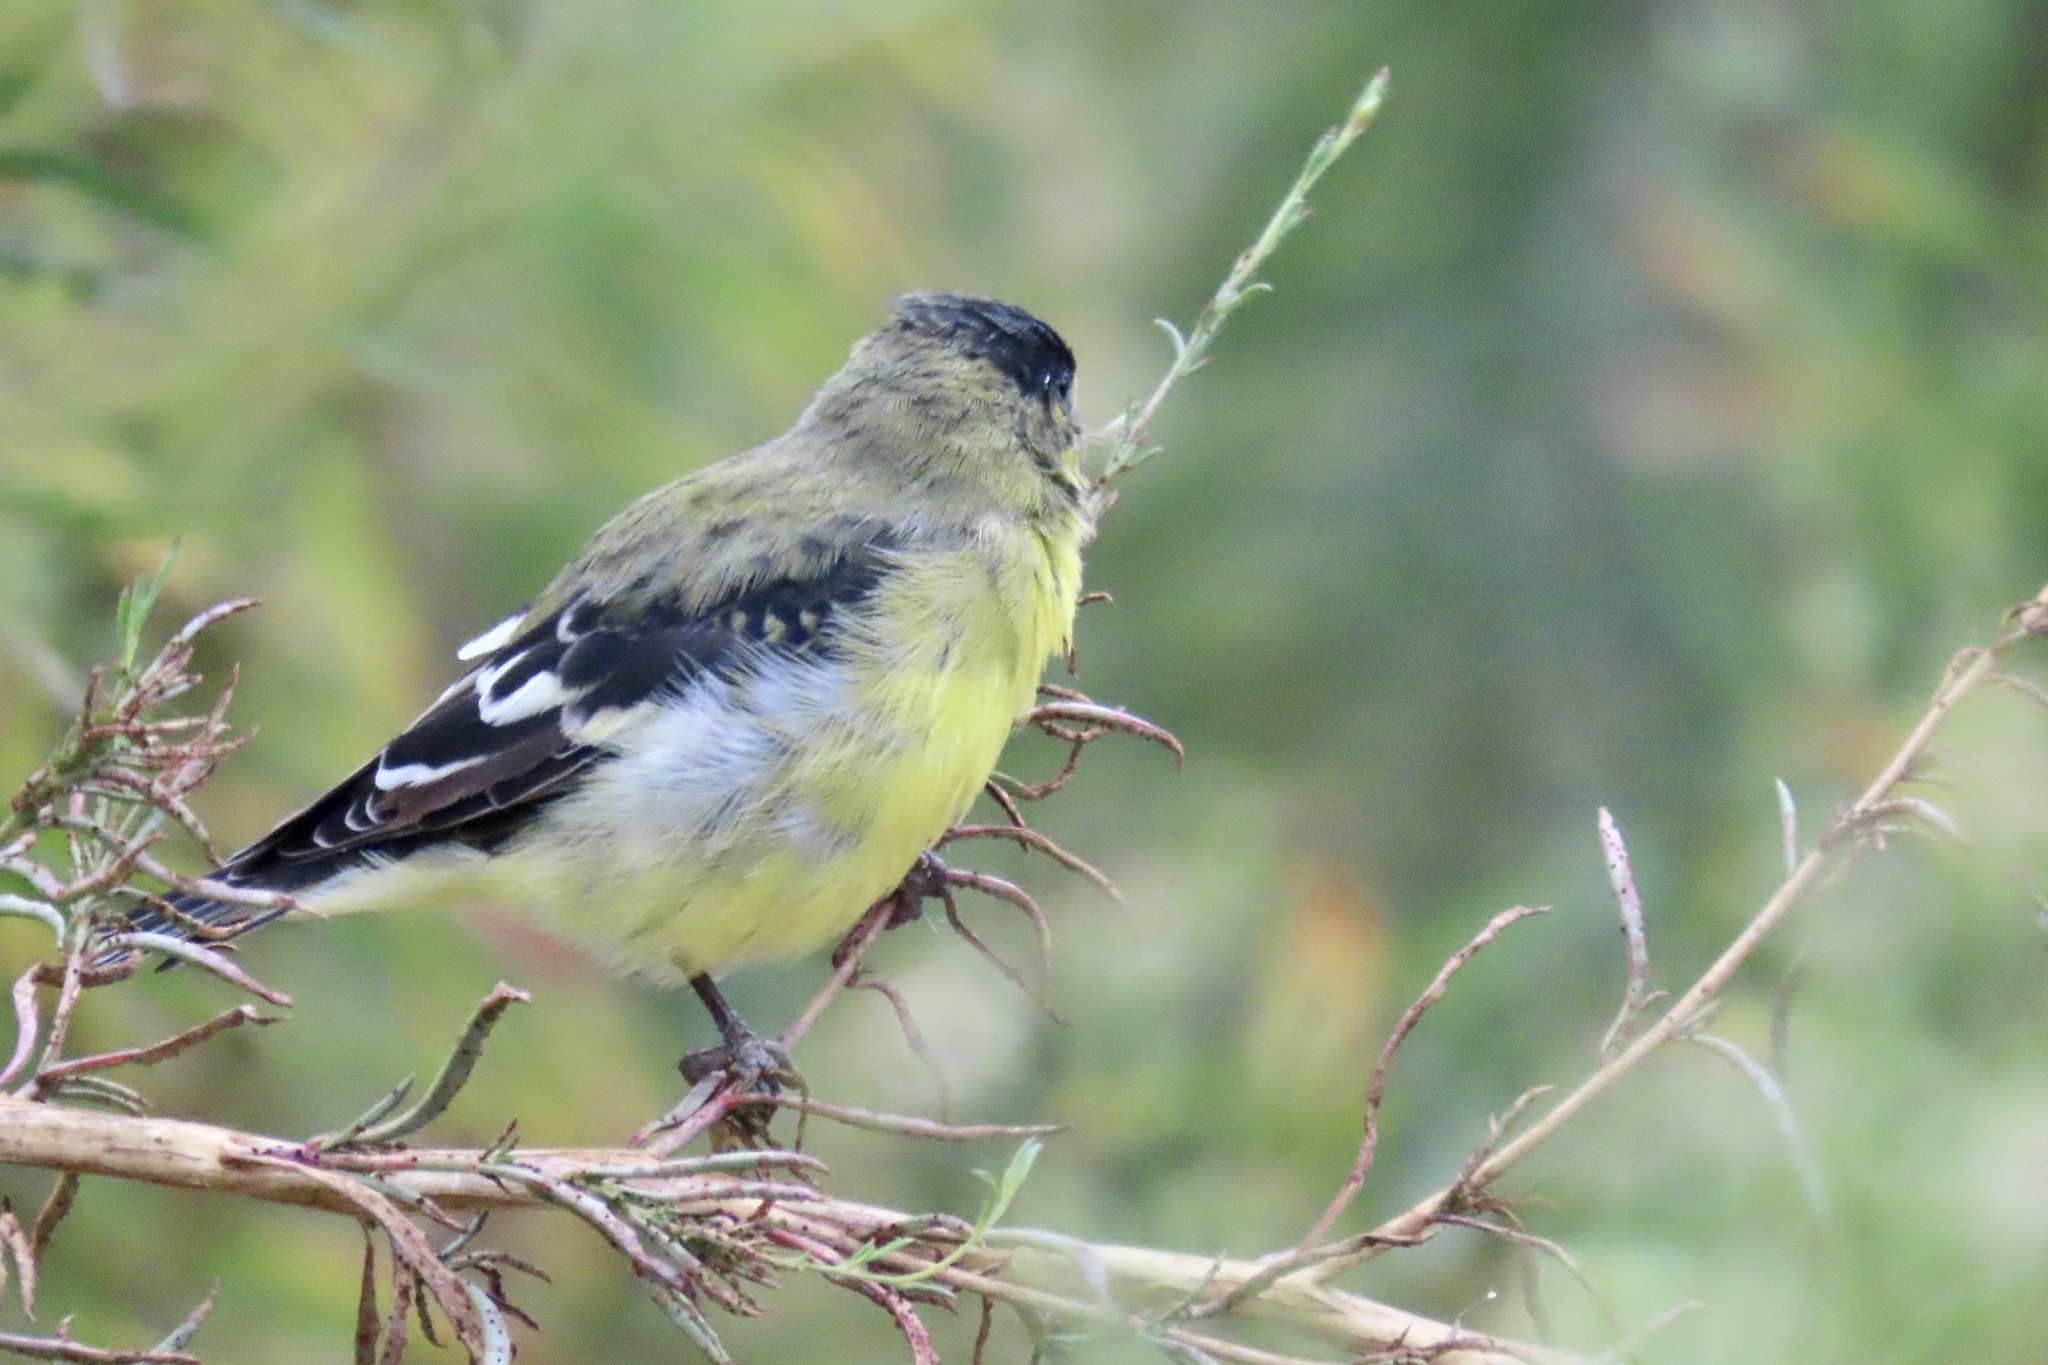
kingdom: Animalia
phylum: Chordata
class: Aves
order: Passeriformes
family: Fringillidae
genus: Spinus
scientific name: Spinus psaltria
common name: Lesser goldfinch
